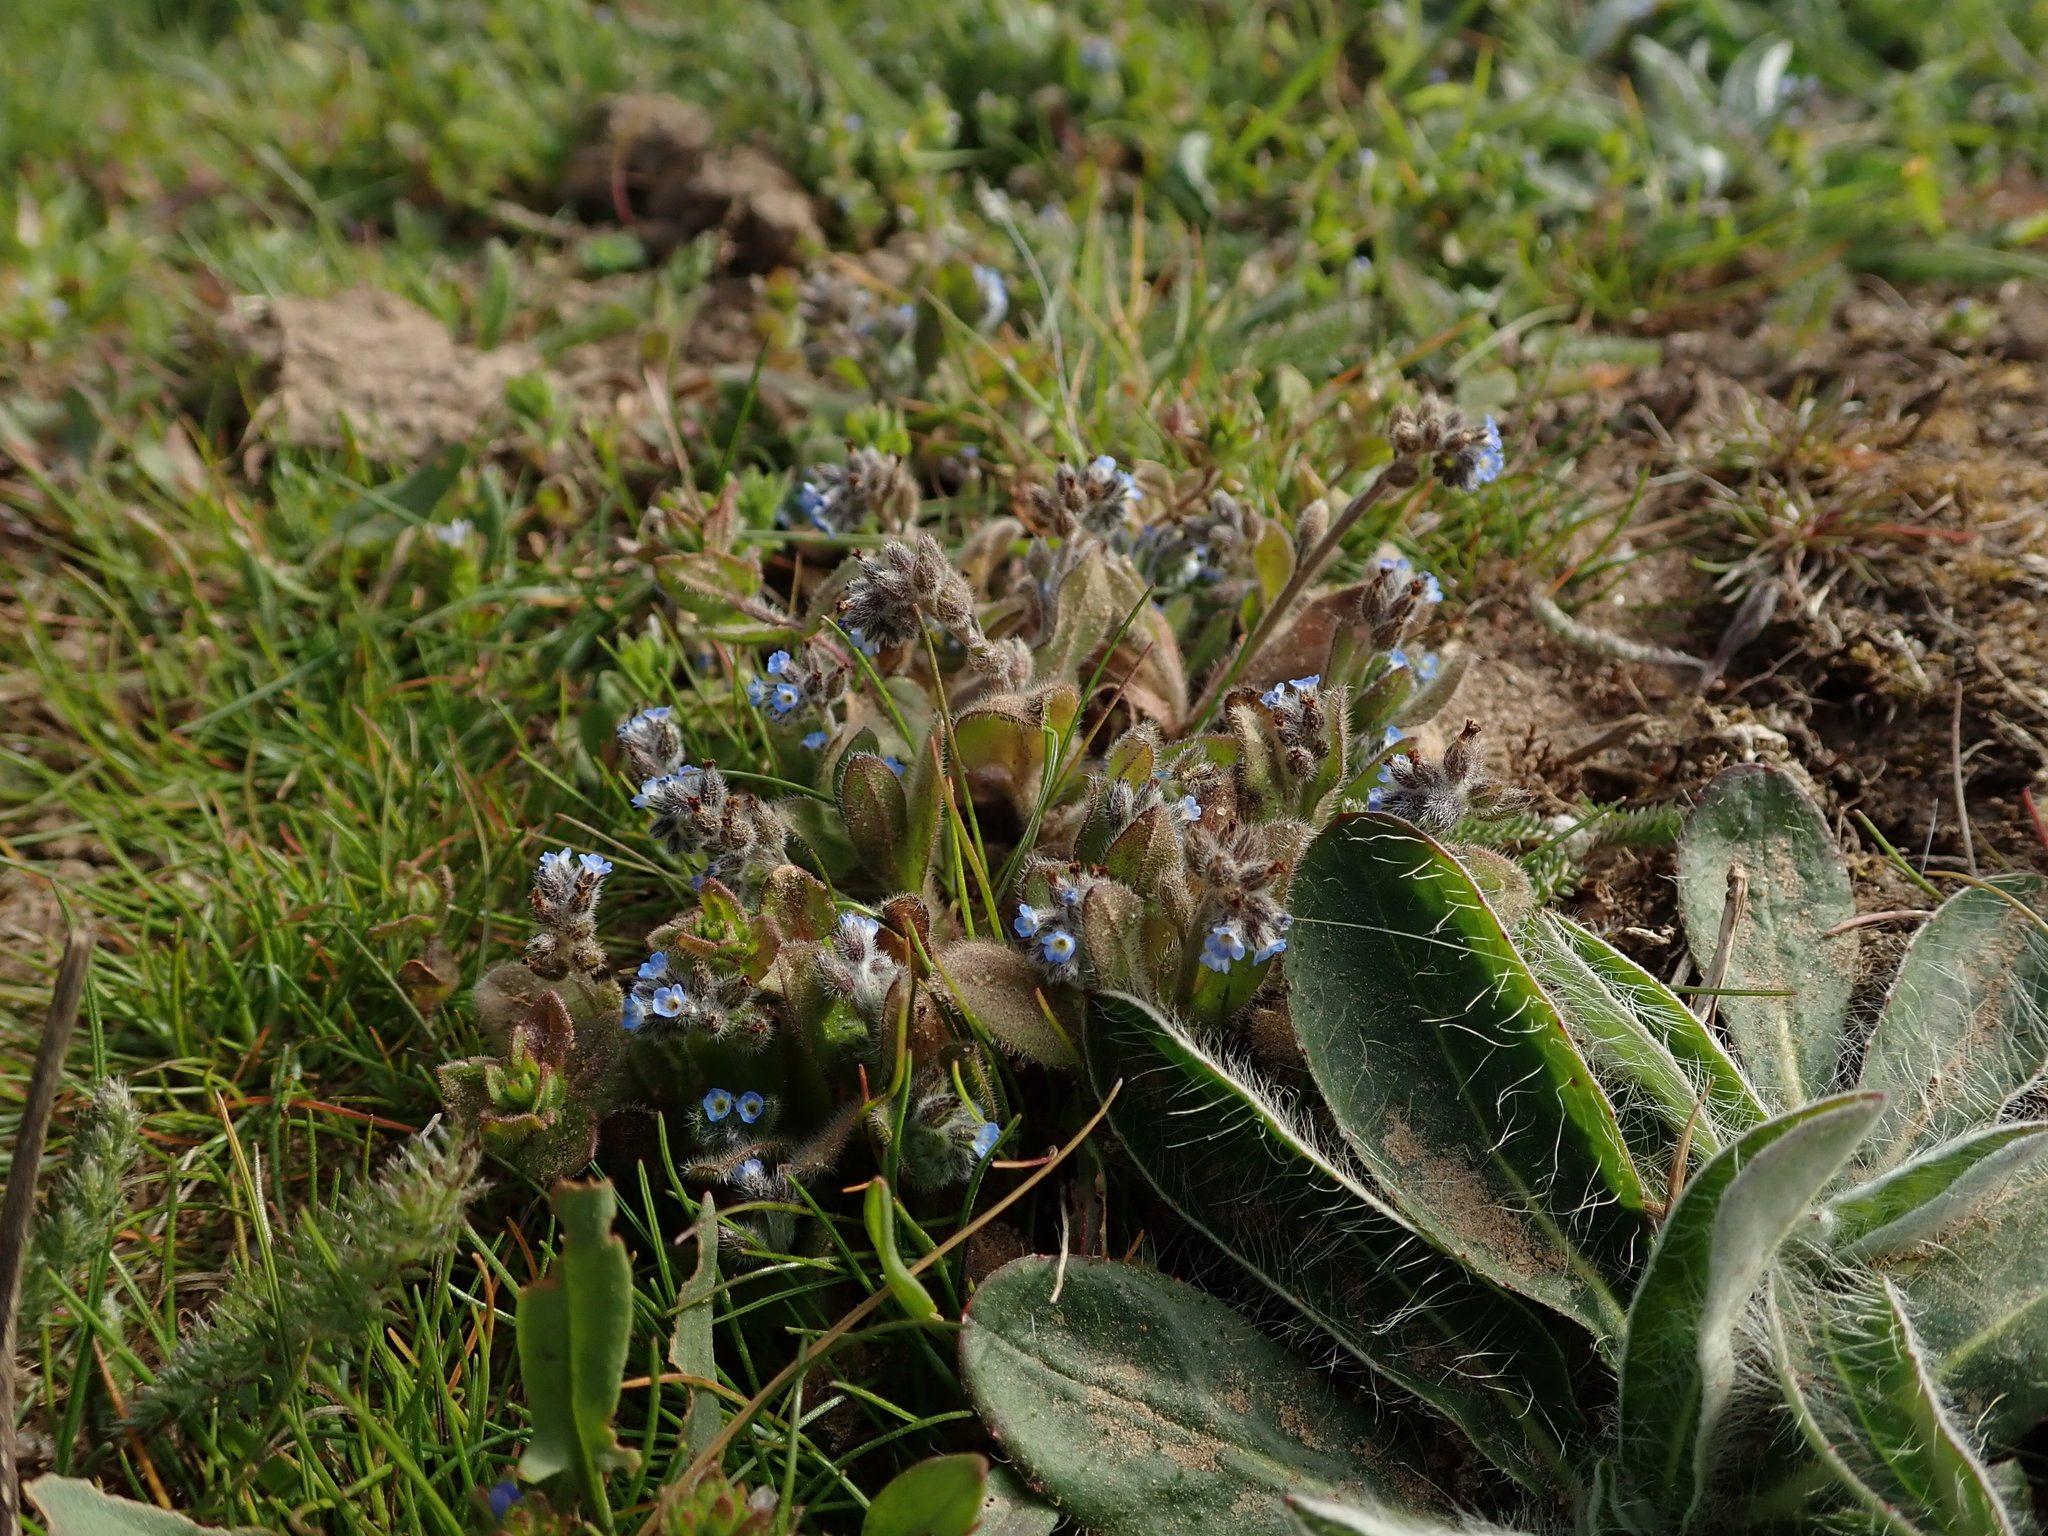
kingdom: Plantae
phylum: Tracheophyta
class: Magnoliopsida
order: Boraginales
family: Boraginaceae
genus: Myosotis
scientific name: Myosotis ramosissima
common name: Early forget-me-not
